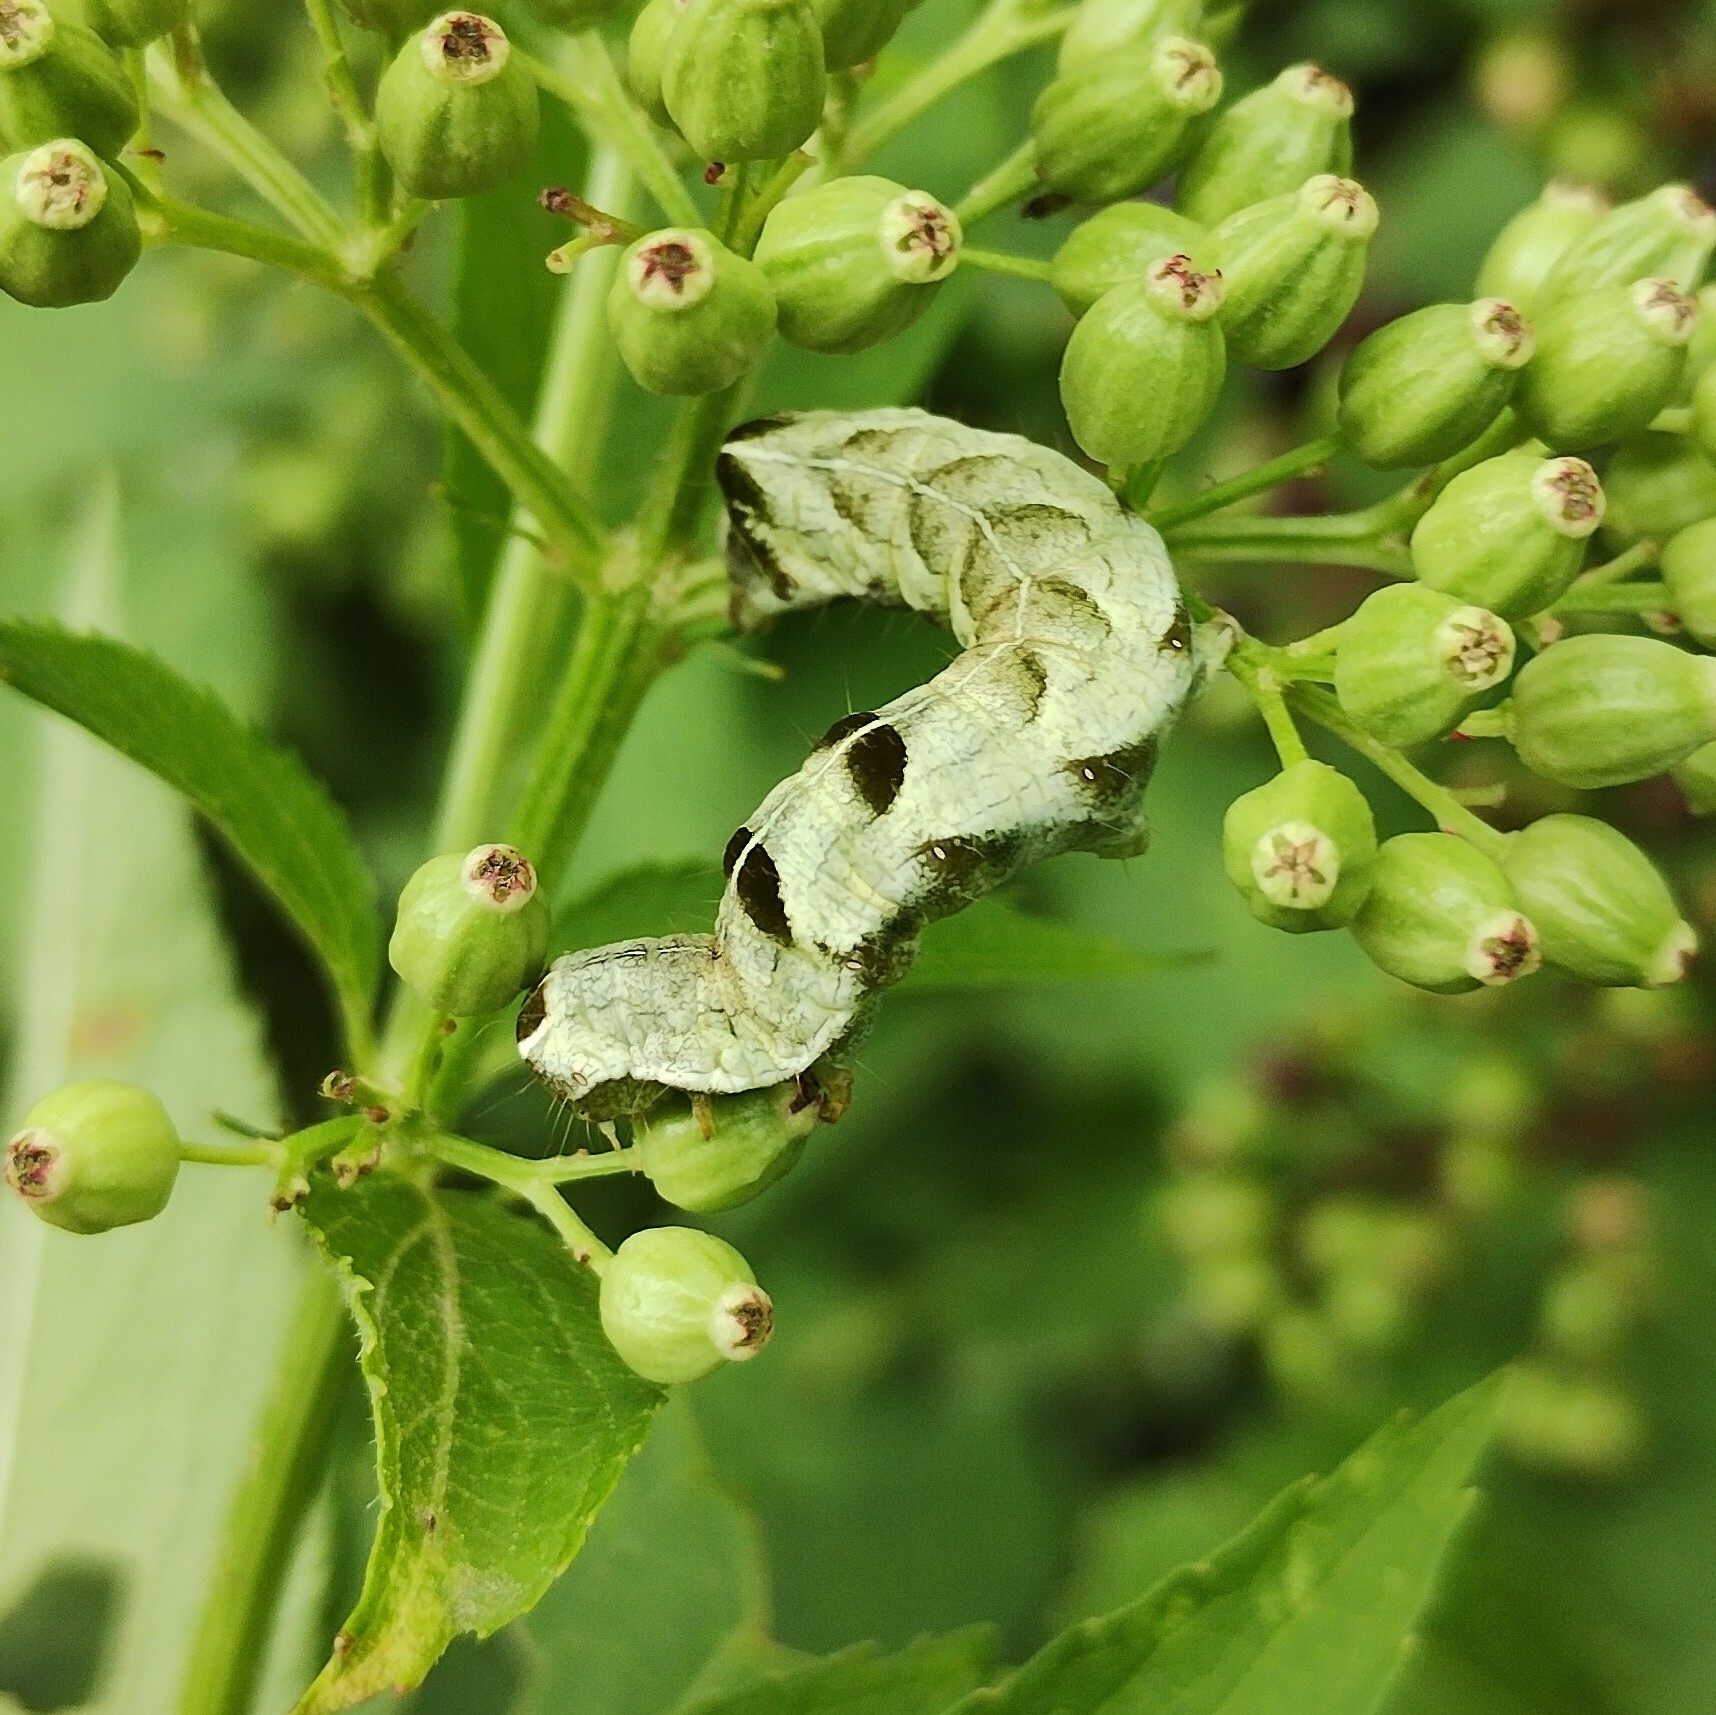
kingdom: Animalia
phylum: Arthropoda
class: Insecta
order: Lepidoptera
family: Noctuidae
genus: Melanchra
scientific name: Melanchra persicariae
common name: Dot moth
